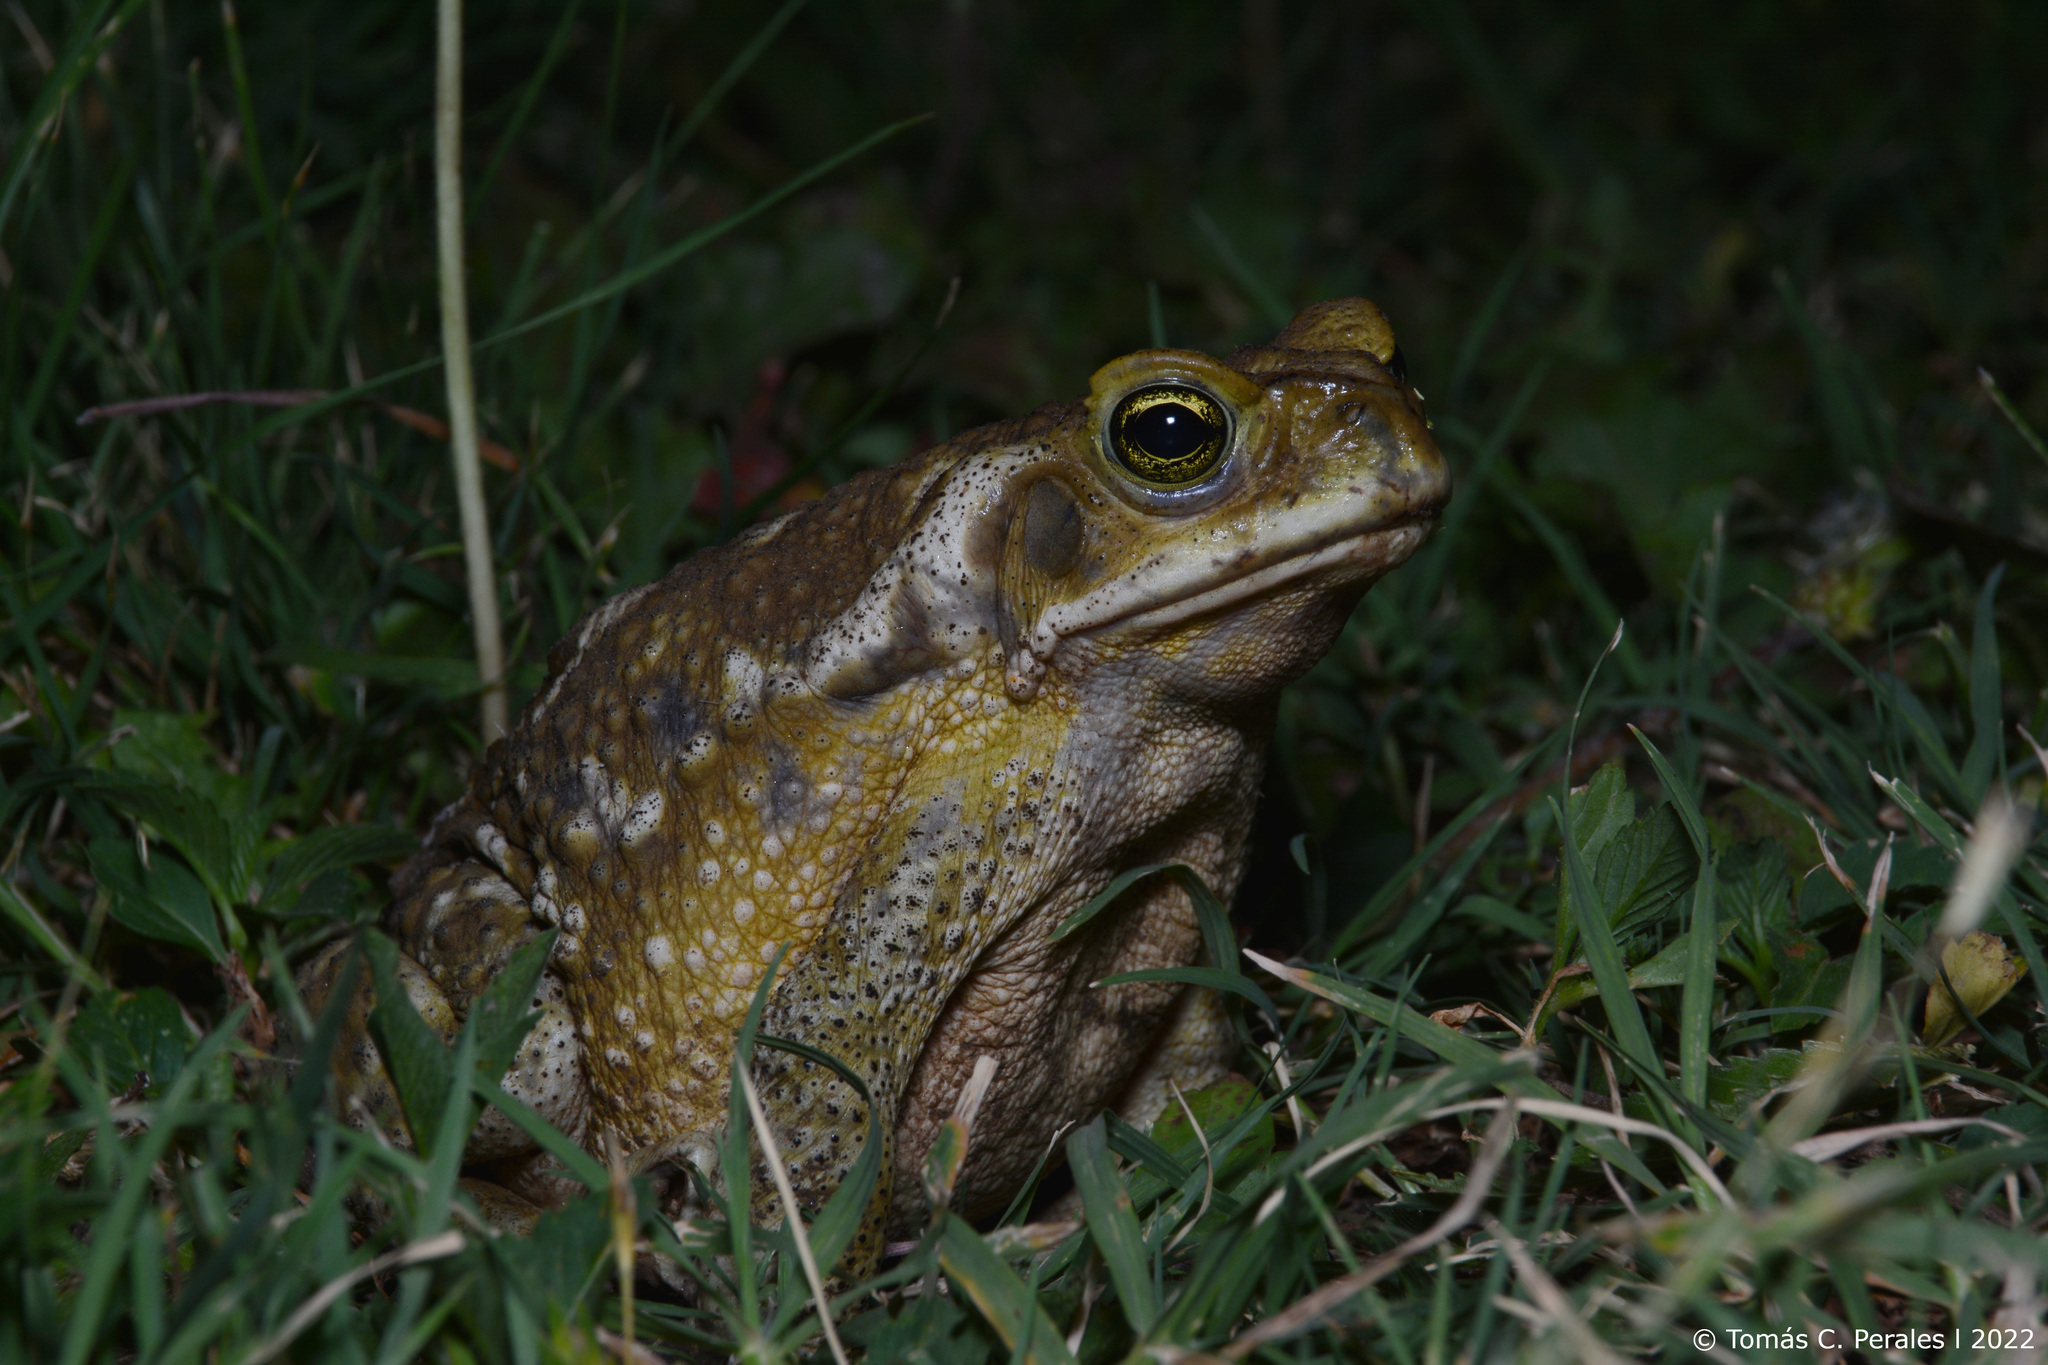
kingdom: Animalia
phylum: Chordata
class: Amphibia
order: Anura
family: Bufonidae
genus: Rhinella
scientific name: Rhinella arenarum
